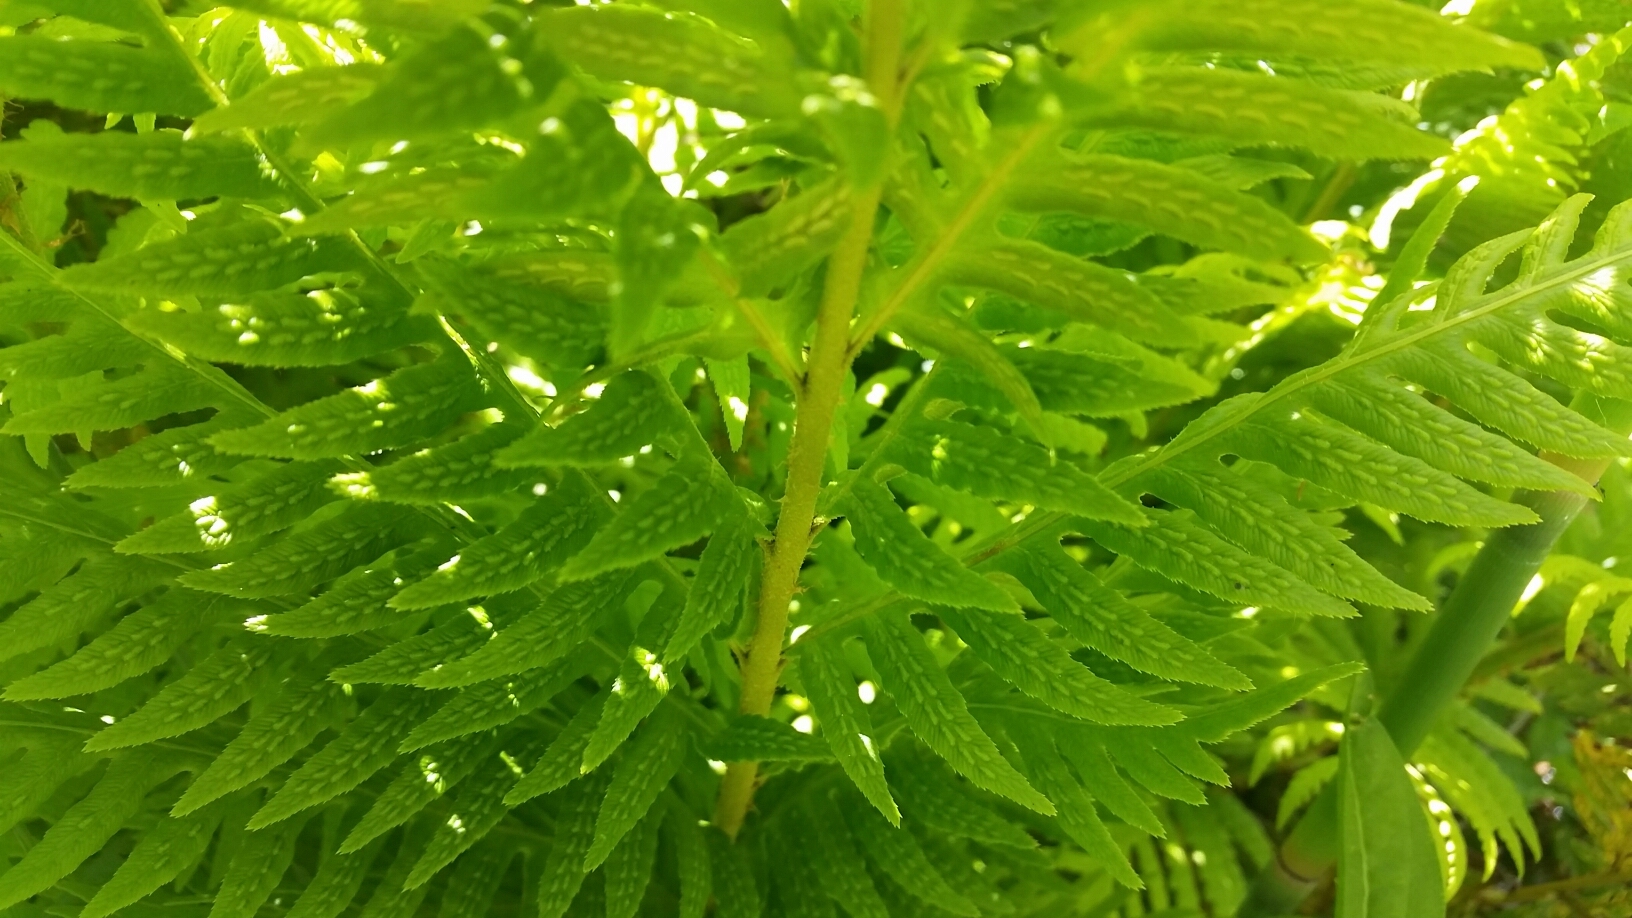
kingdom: Plantae
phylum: Tracheophyta
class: Polypodiopsida
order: Polypodiales
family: Blechnaceae
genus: Woodwardia
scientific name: Woodwardia fimbriata
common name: Giant chain fern
